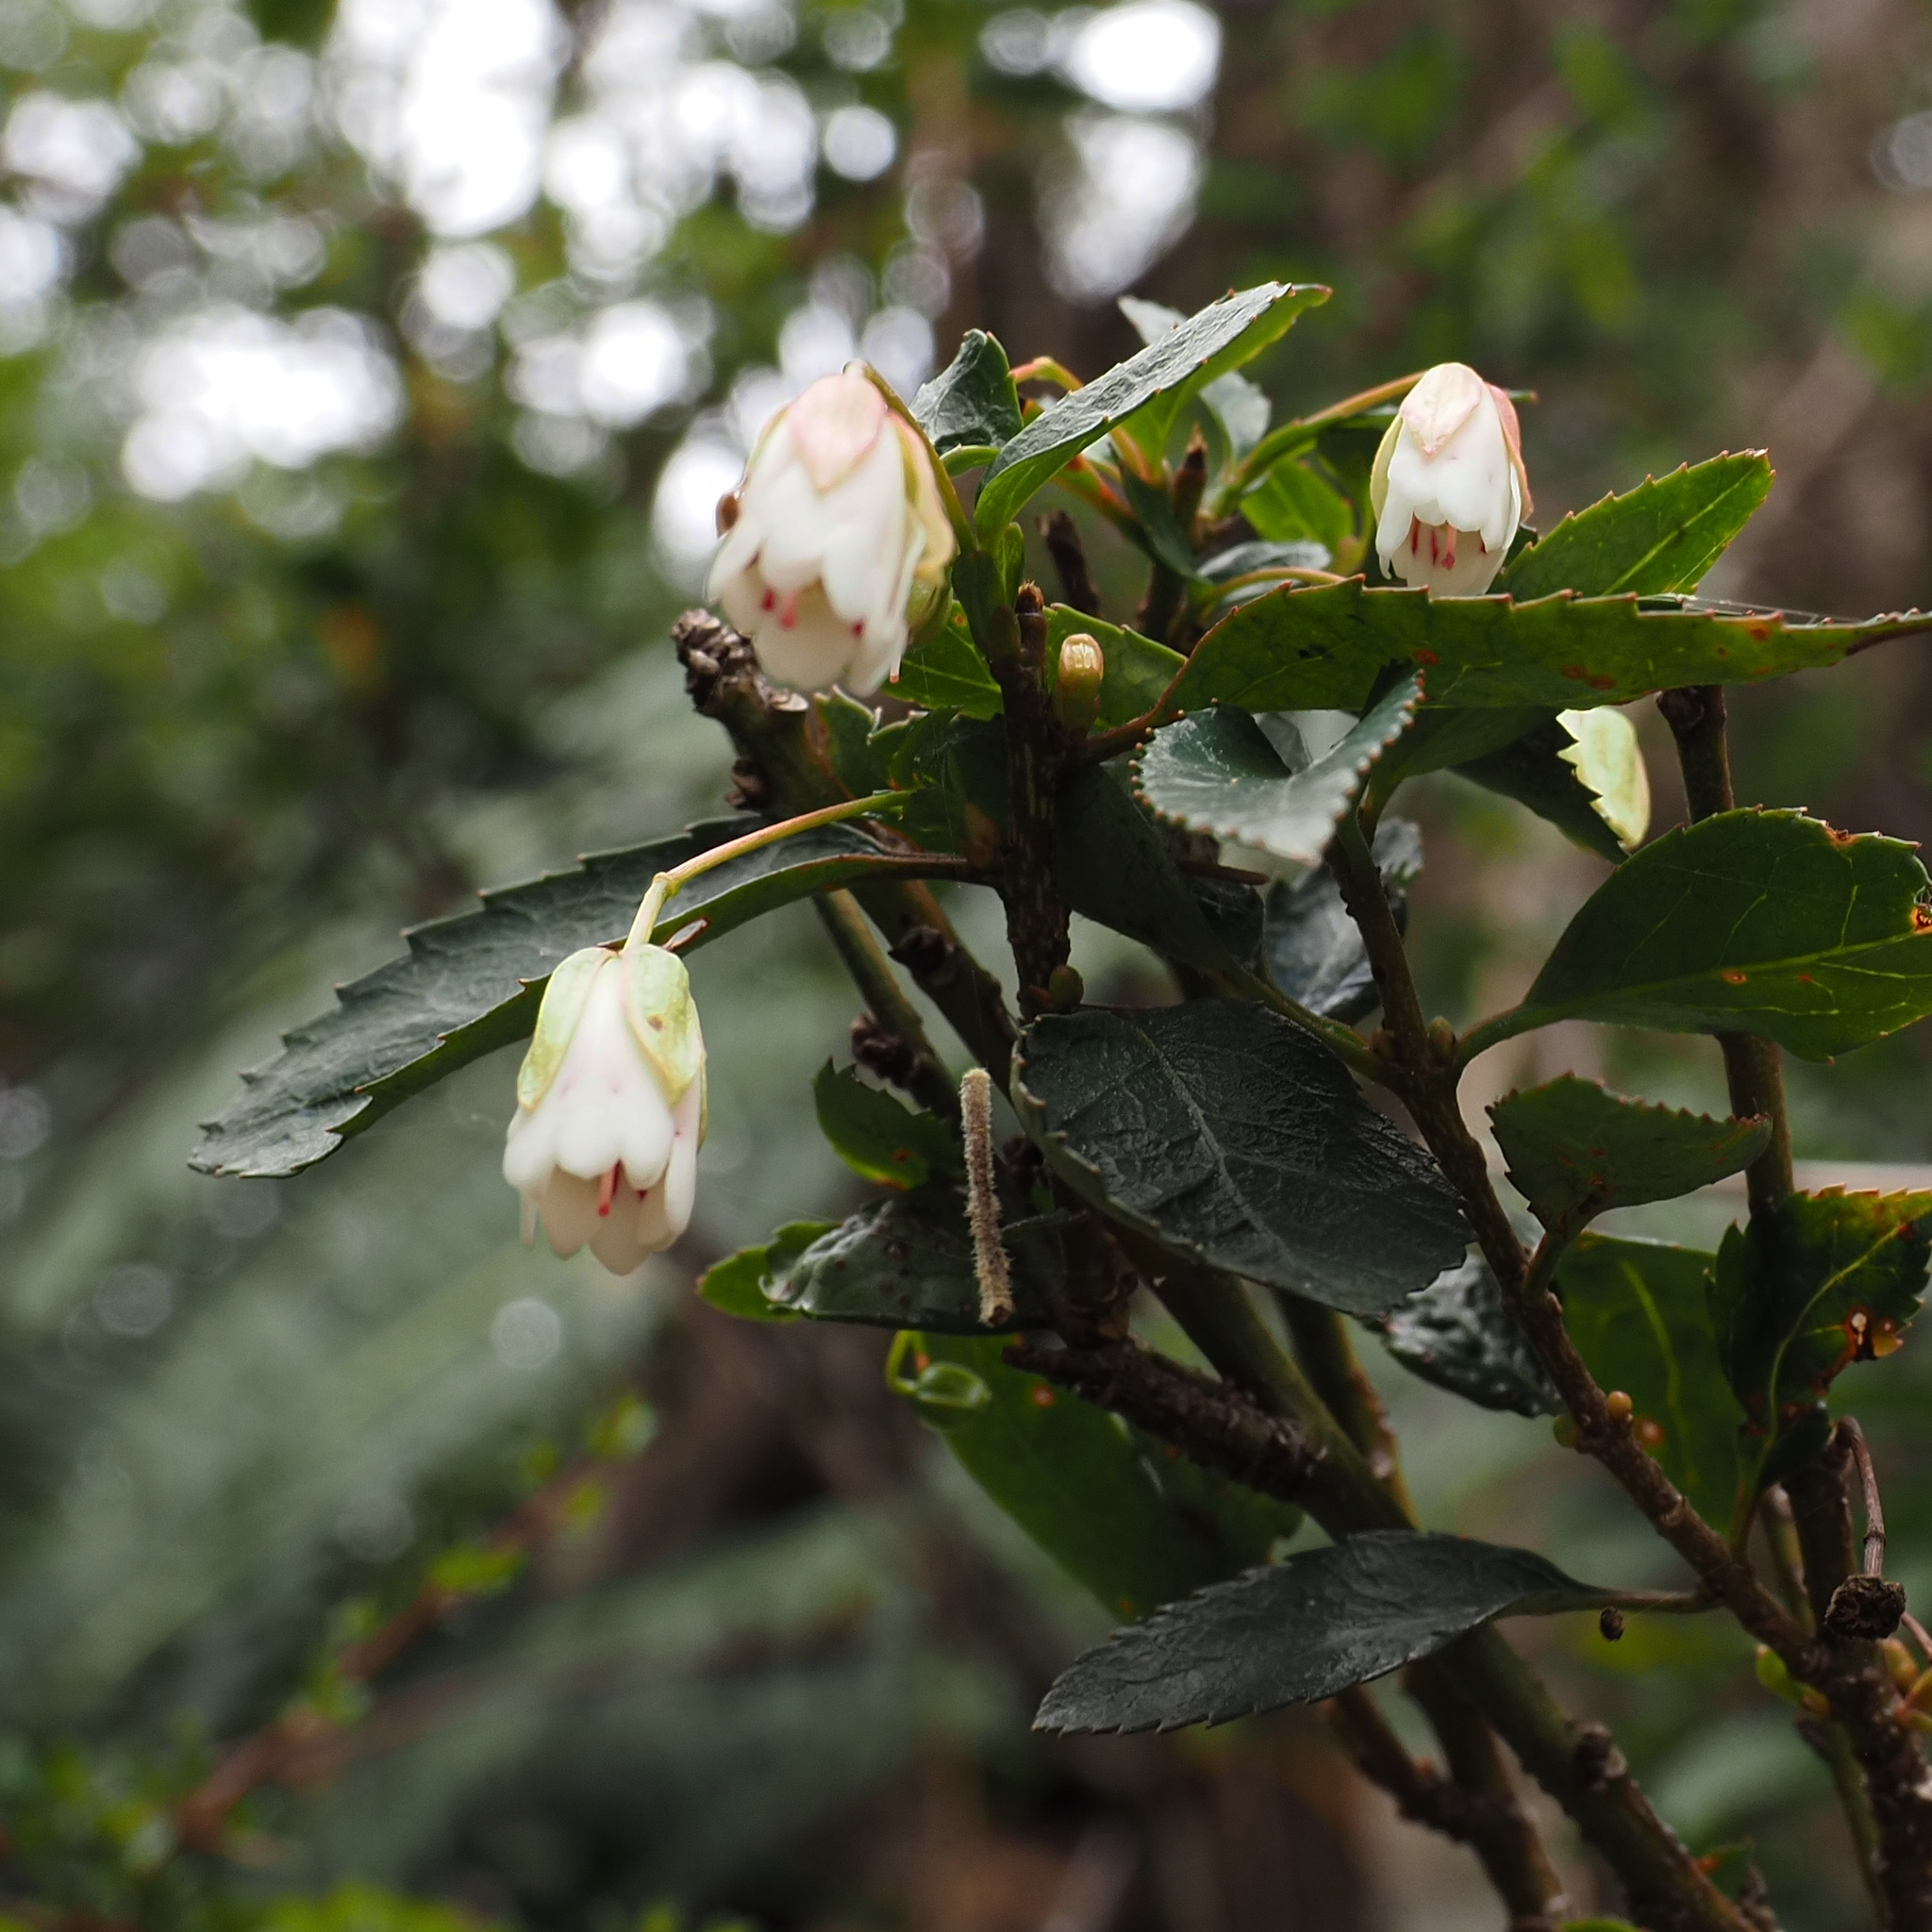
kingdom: Plantae
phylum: Tracheophyta
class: Magnoliopsida
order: Oxalidales
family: Elaeocarpaceae
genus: Aristotelia
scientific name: Aristotelia peduncularis
